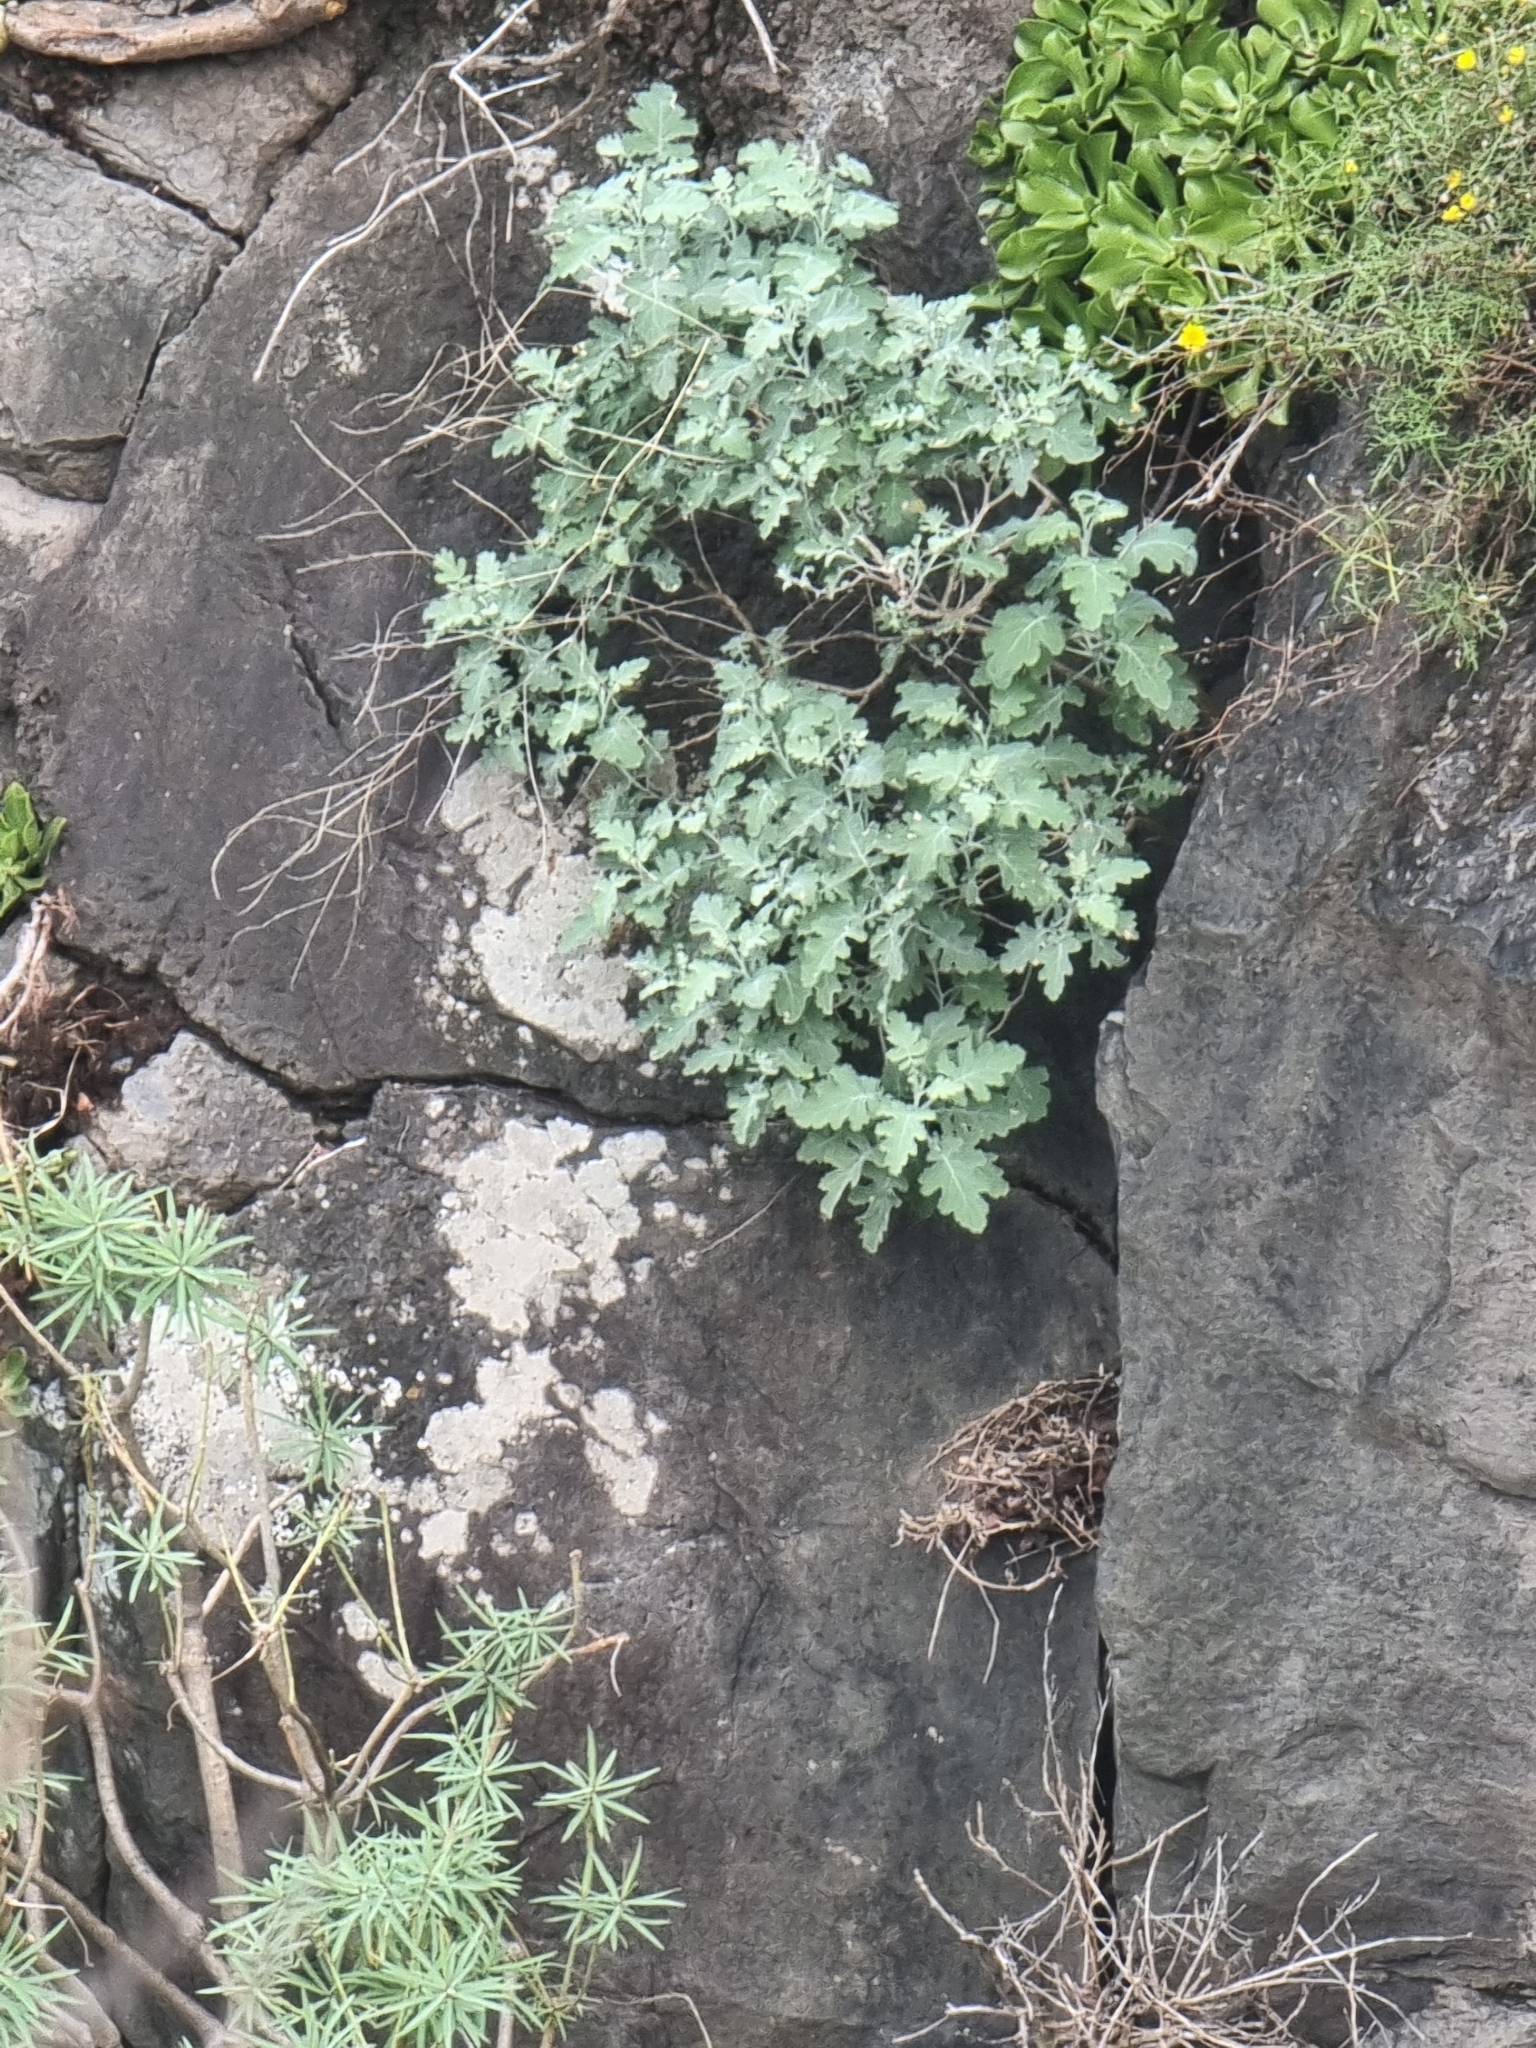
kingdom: Plantae
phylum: Tracheophyta
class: Magnoliopsida
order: Brassicales
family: Brassicaceae
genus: Crambe
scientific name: Crambe fruticosa
